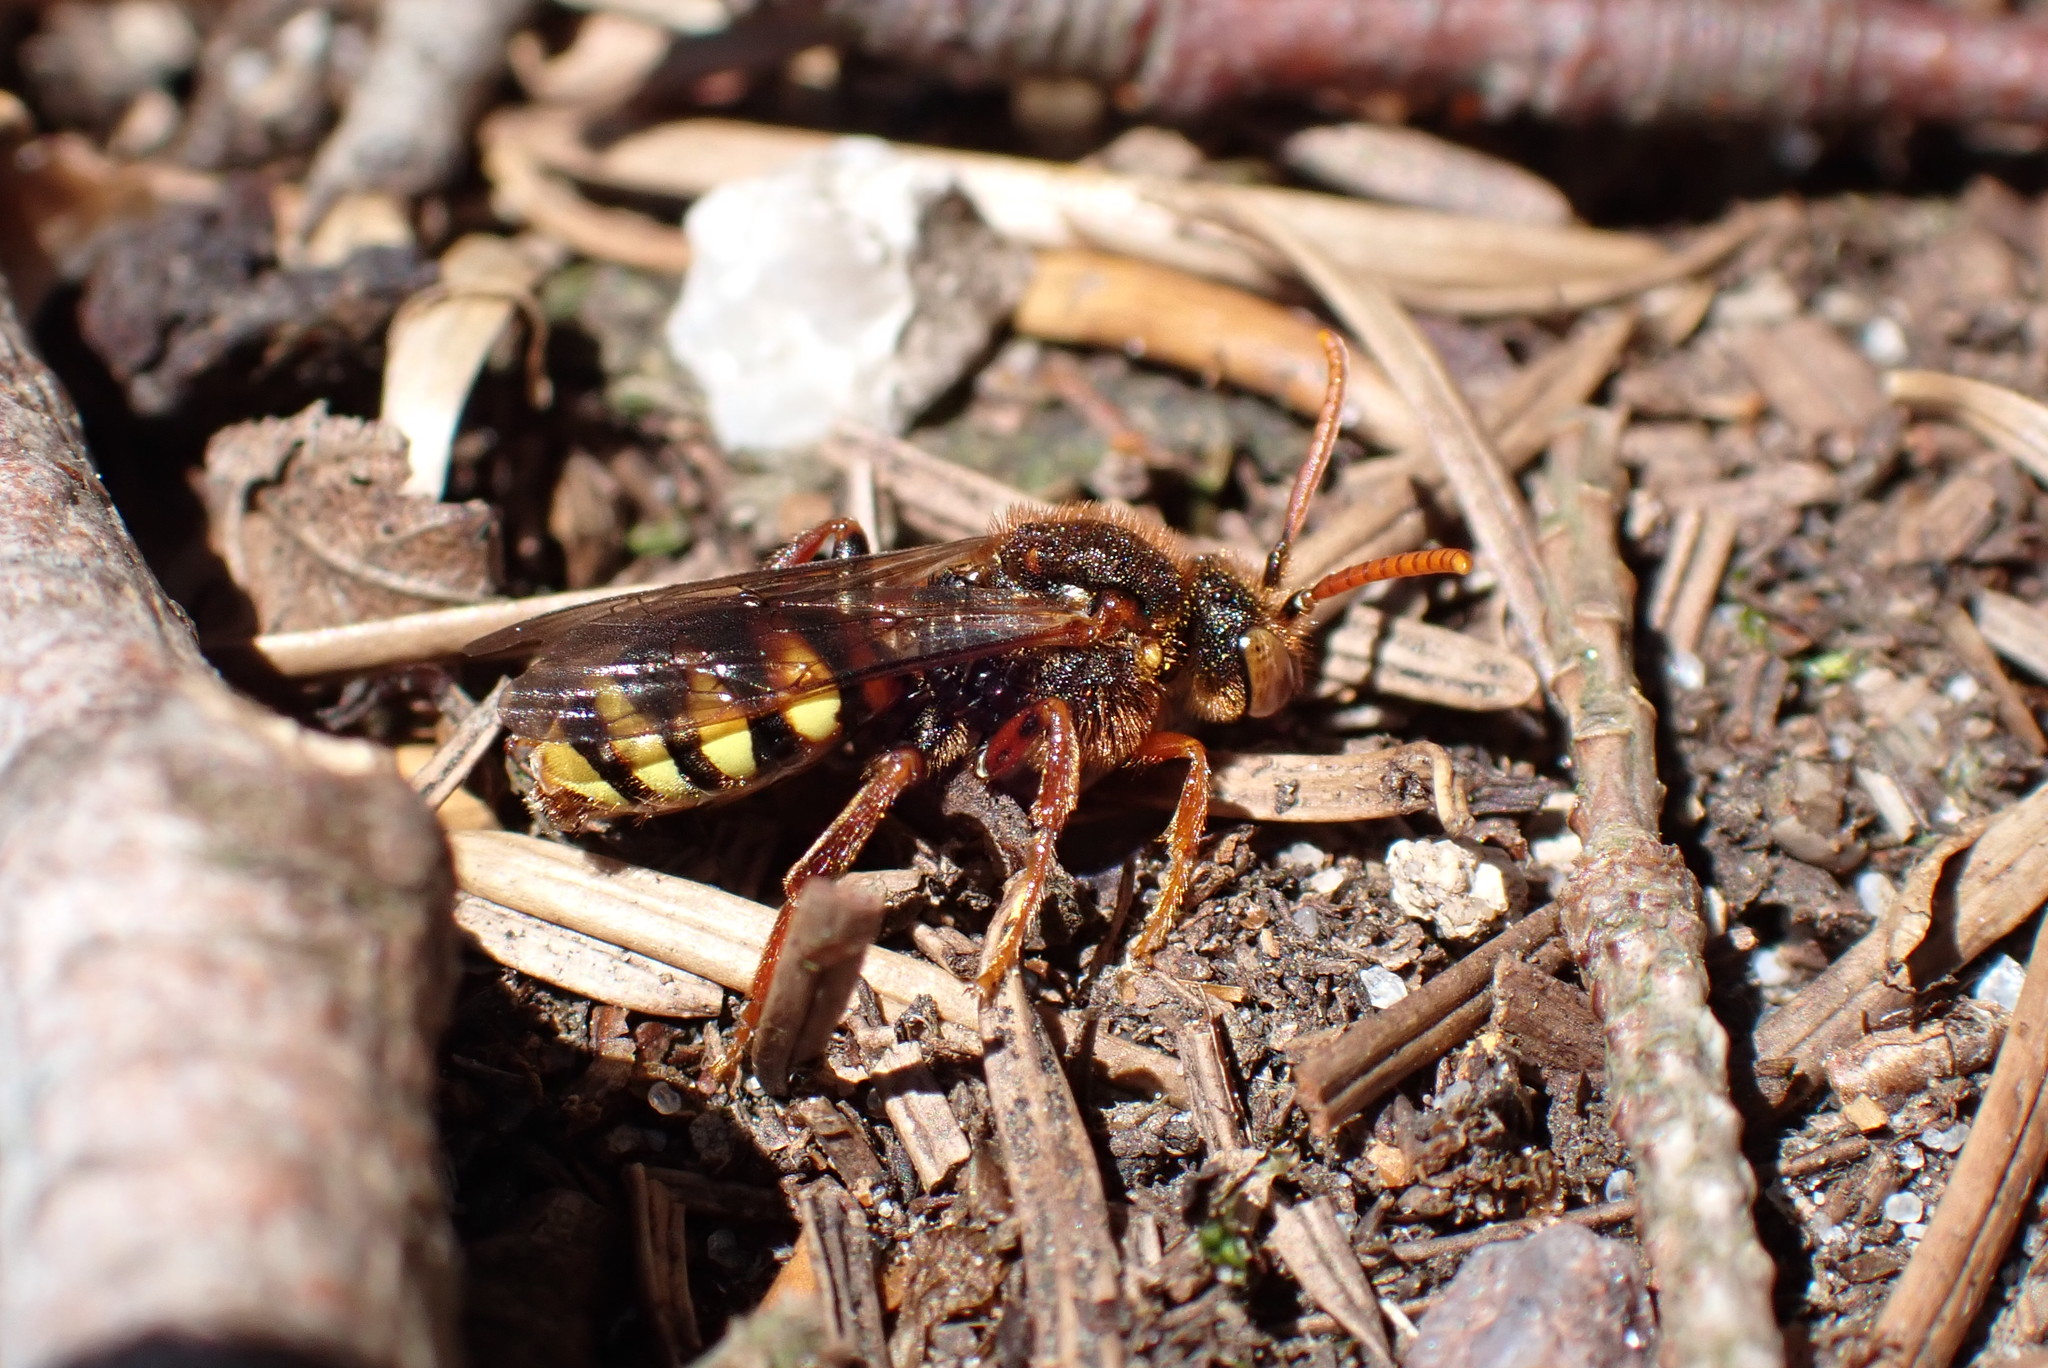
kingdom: Animalia
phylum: Arthropoda
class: Insecta
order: Hymenoptera
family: Apidae
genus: Nomada
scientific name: Nomada lathburiana
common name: Lathbury's nomad bee
